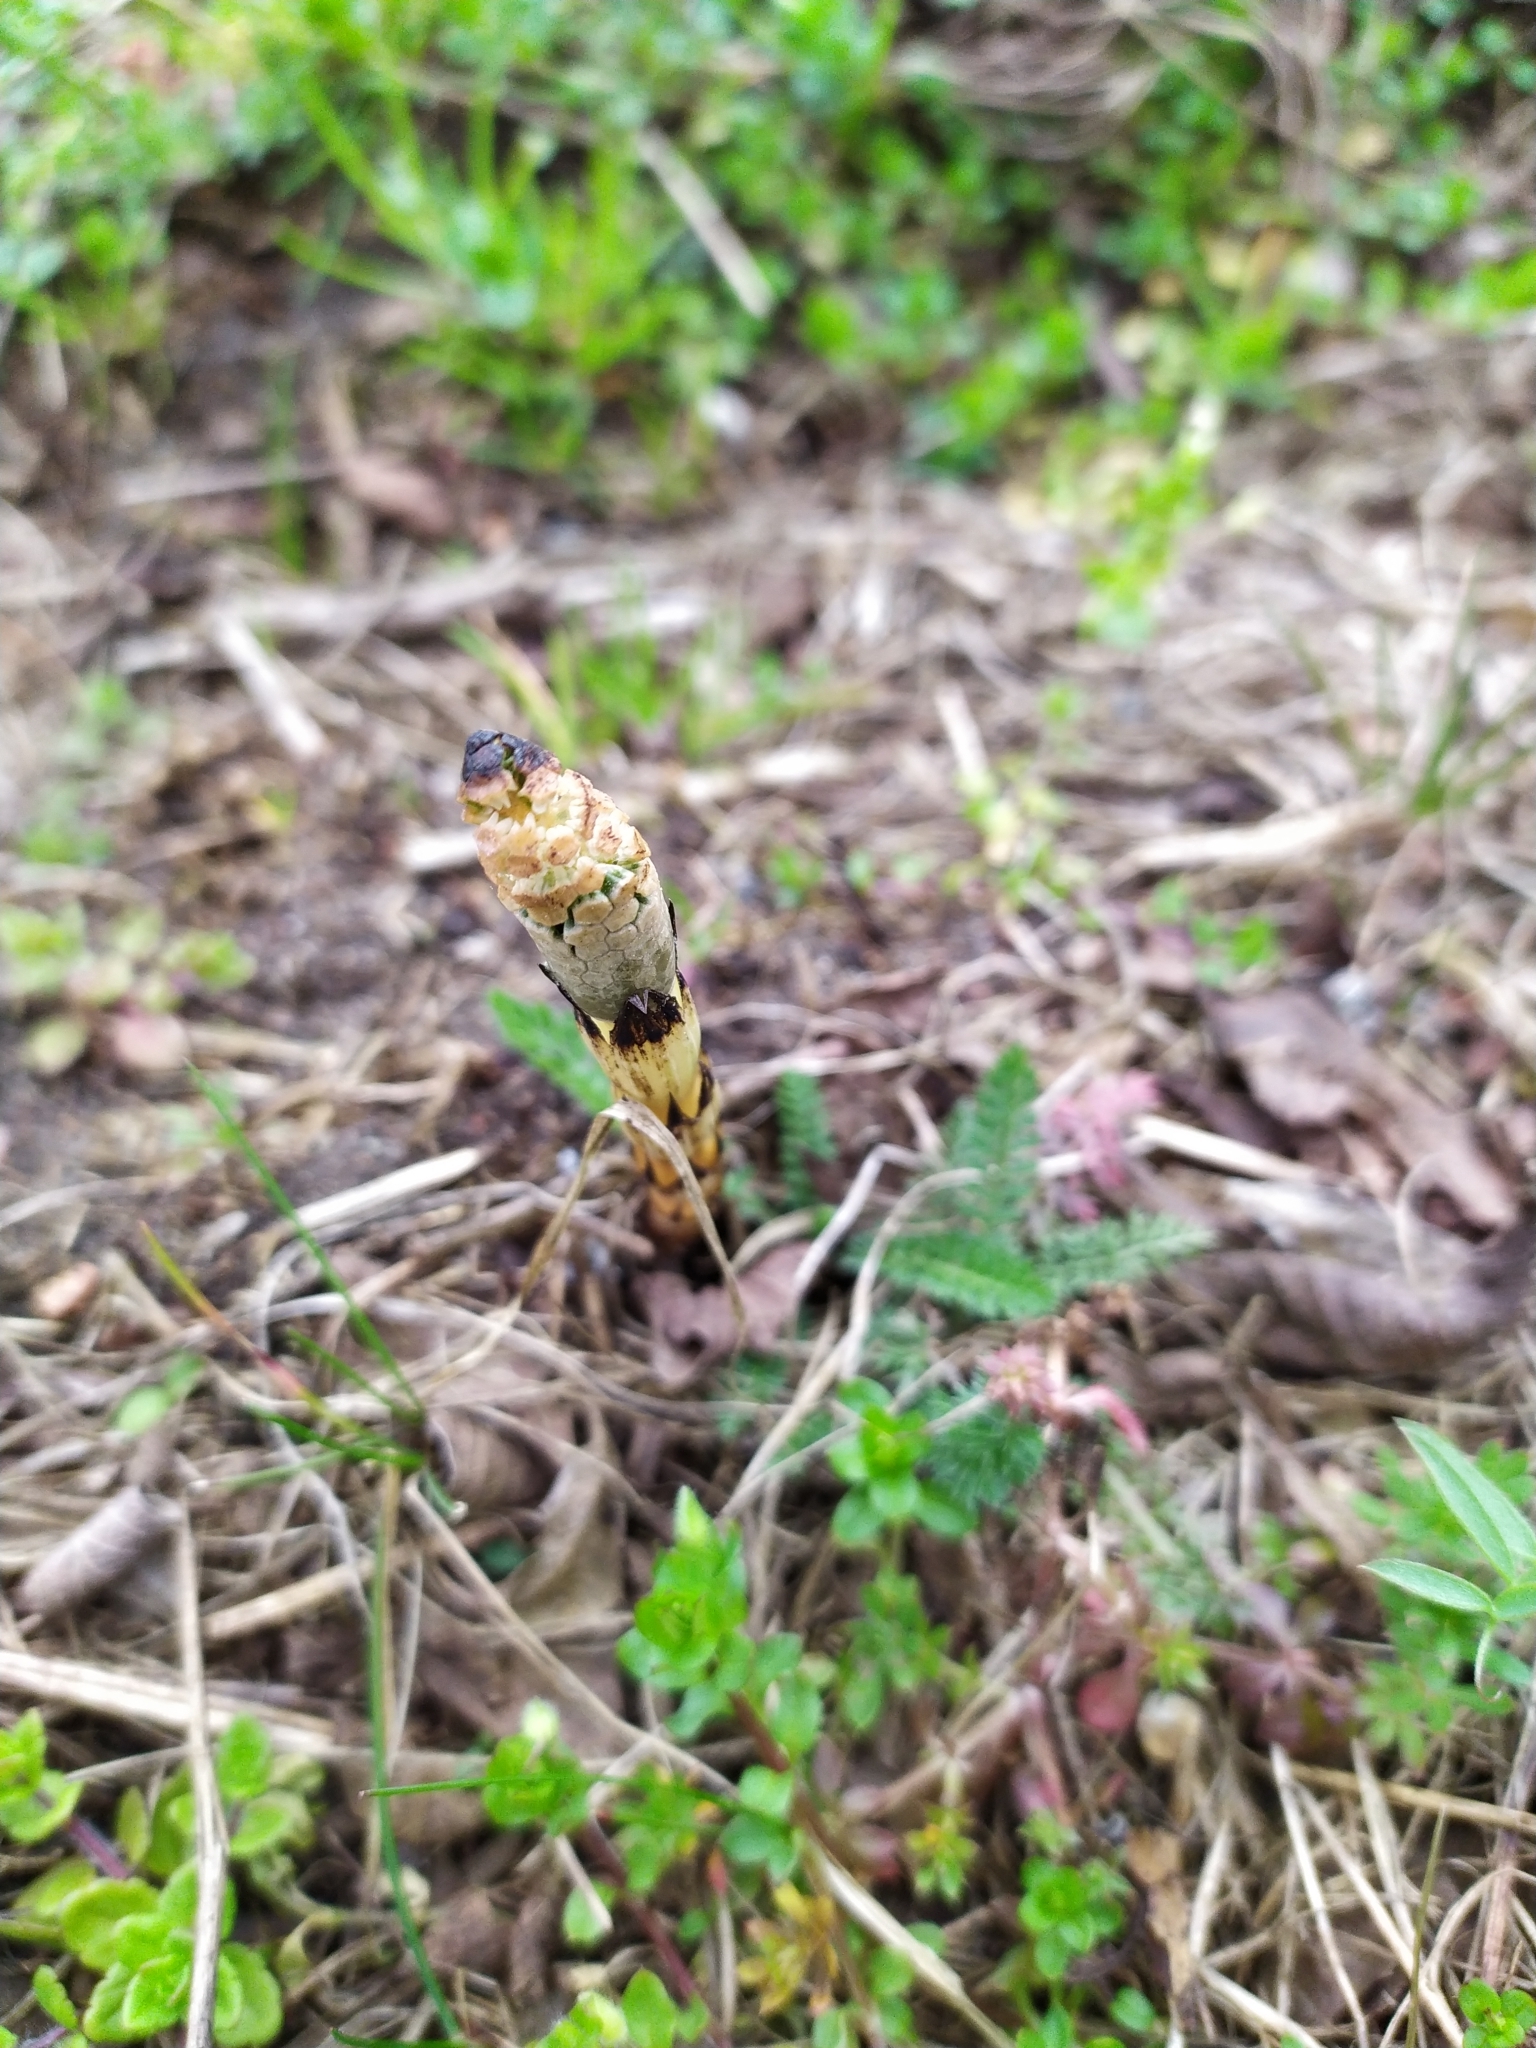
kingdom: Plantae
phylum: Tracheophyta
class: Polypodiopsida
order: Equisetales
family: Equisetaceae
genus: Equisetum
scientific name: Equisetum arvense
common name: Field horsetail
